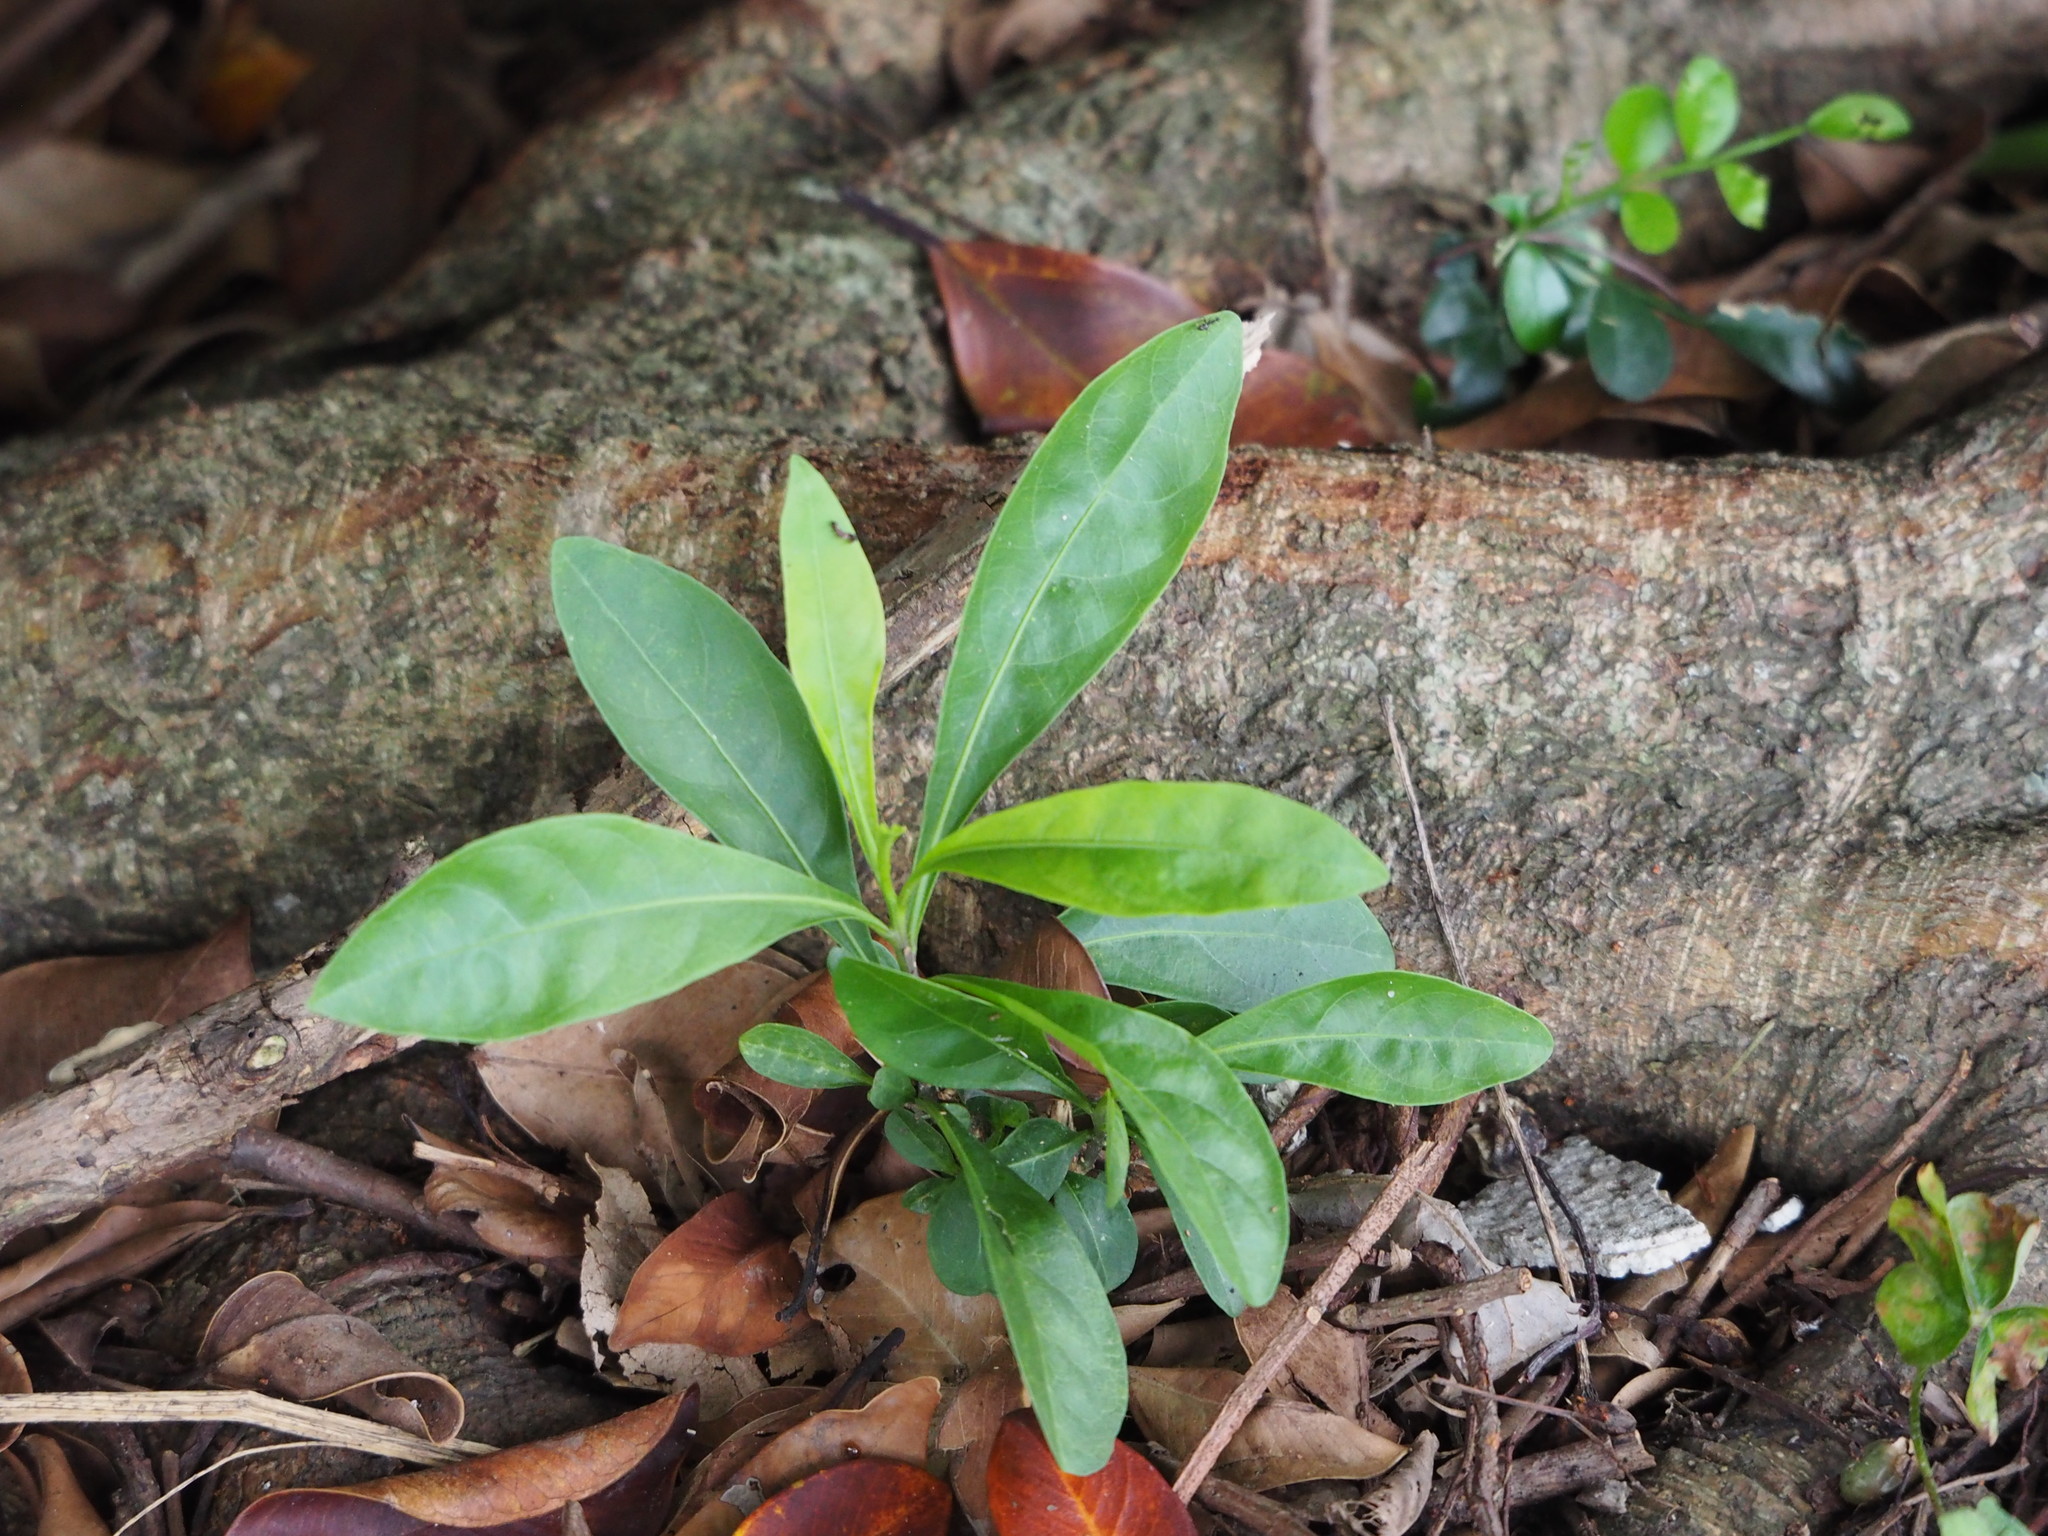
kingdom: Plantae
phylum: Tracheophyta
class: Magnoliopsida
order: Solanales
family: Solanaceae
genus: Solanum
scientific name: Solanum diphyllum
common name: Twoleaf nightshade
